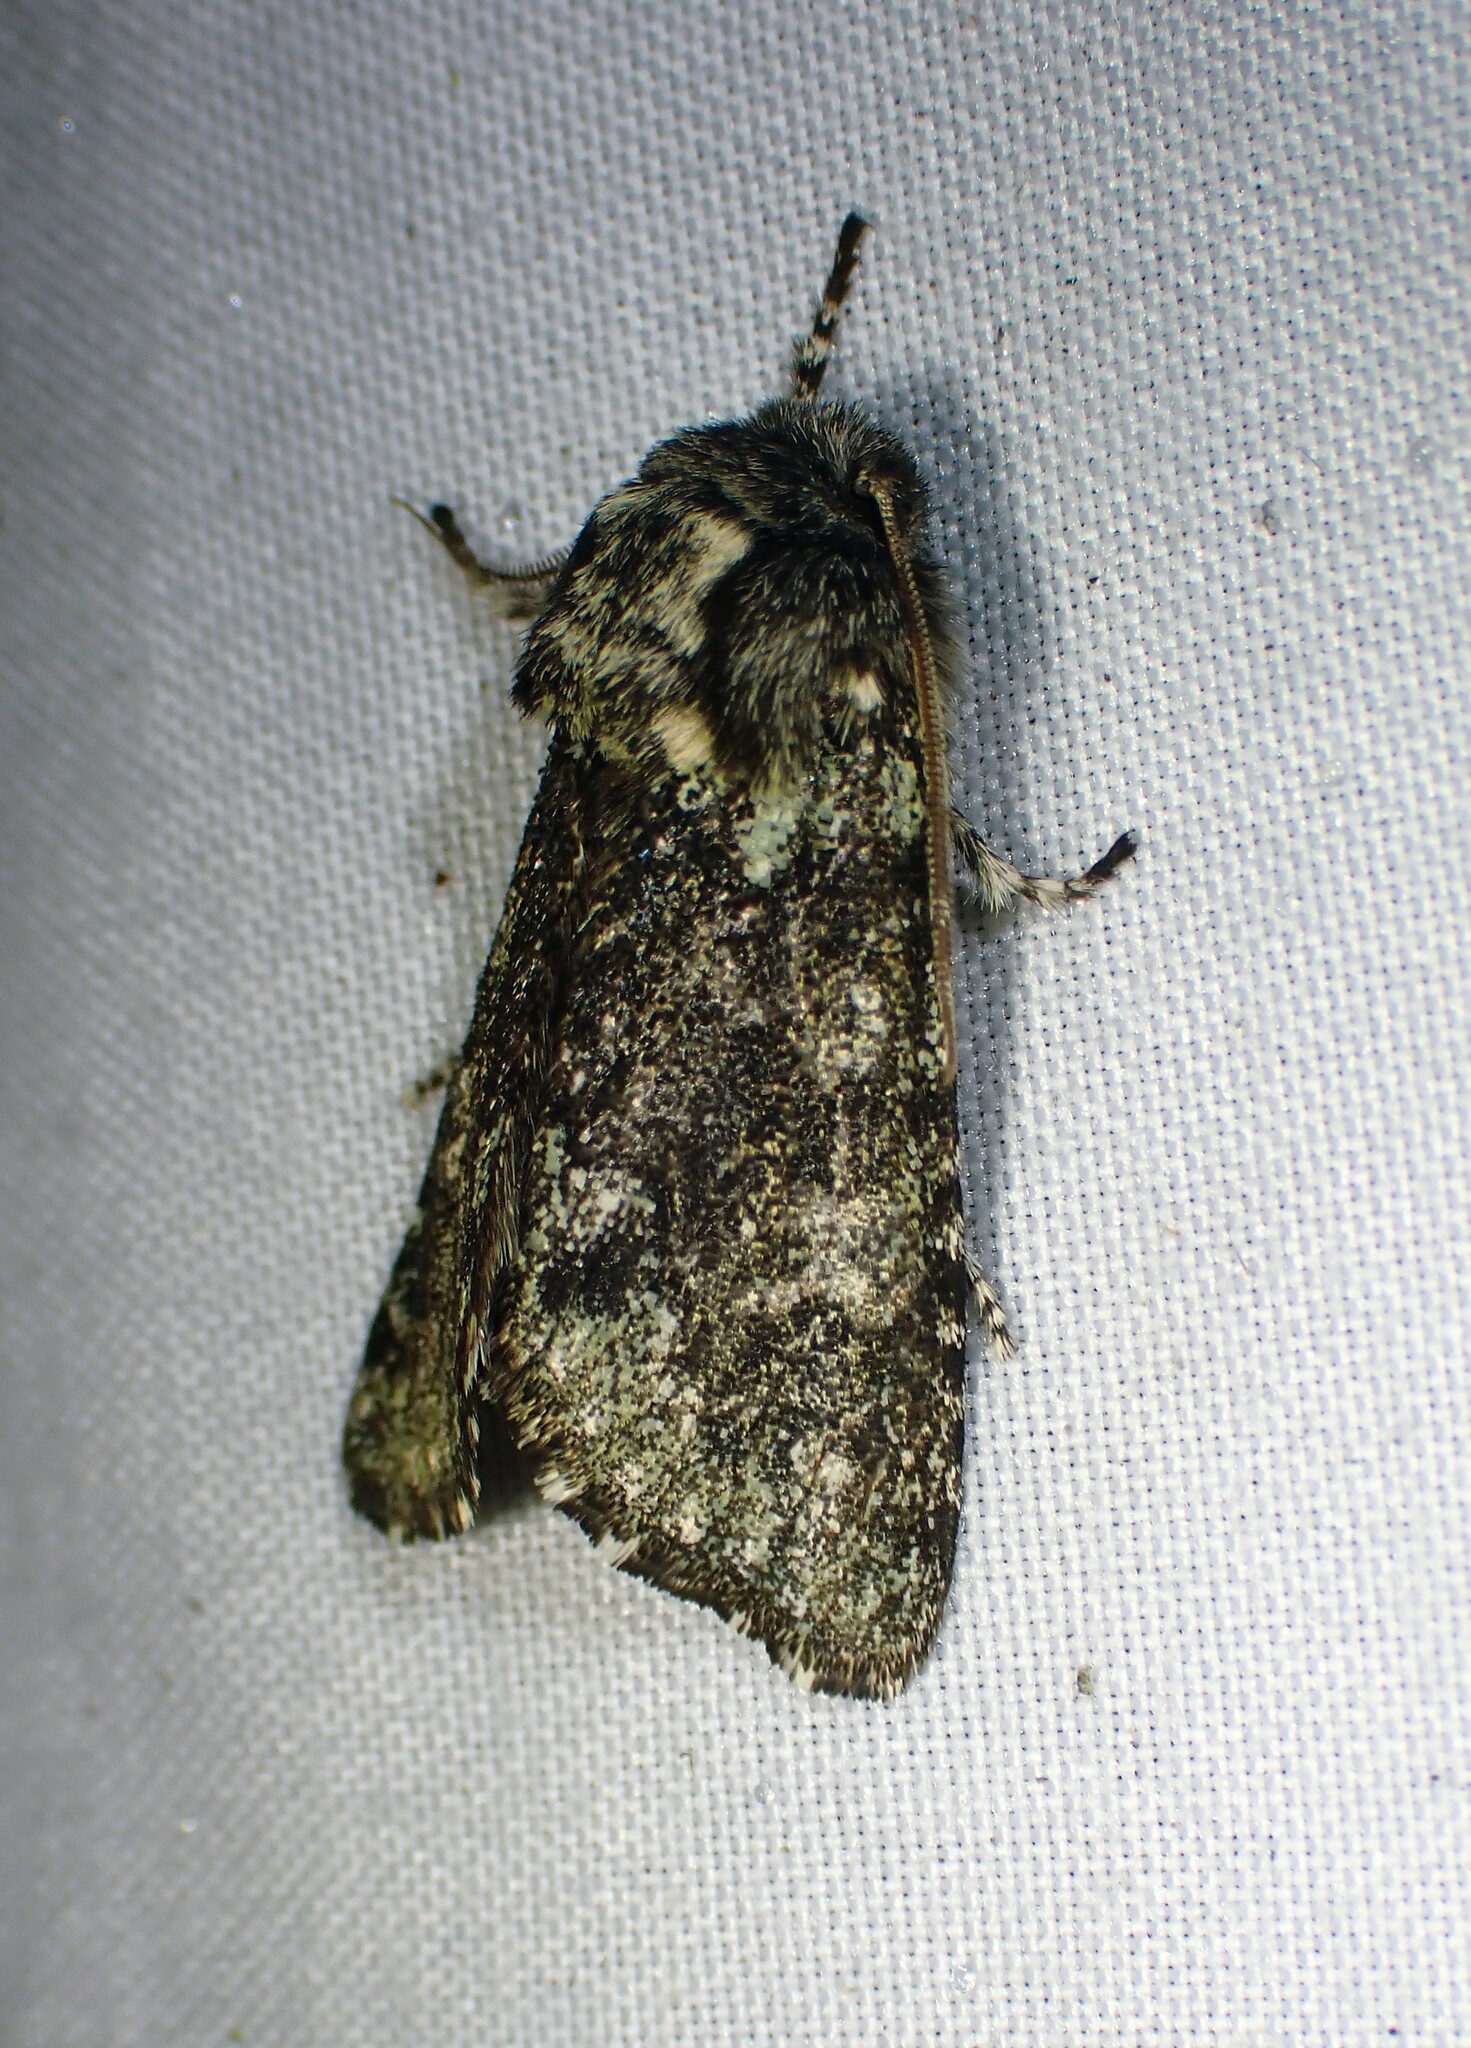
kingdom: Animalia
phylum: Arthropoda
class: Insecta
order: Lepidoptera
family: Noctuidae
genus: Feralia
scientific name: Feralia major
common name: Major sallow
